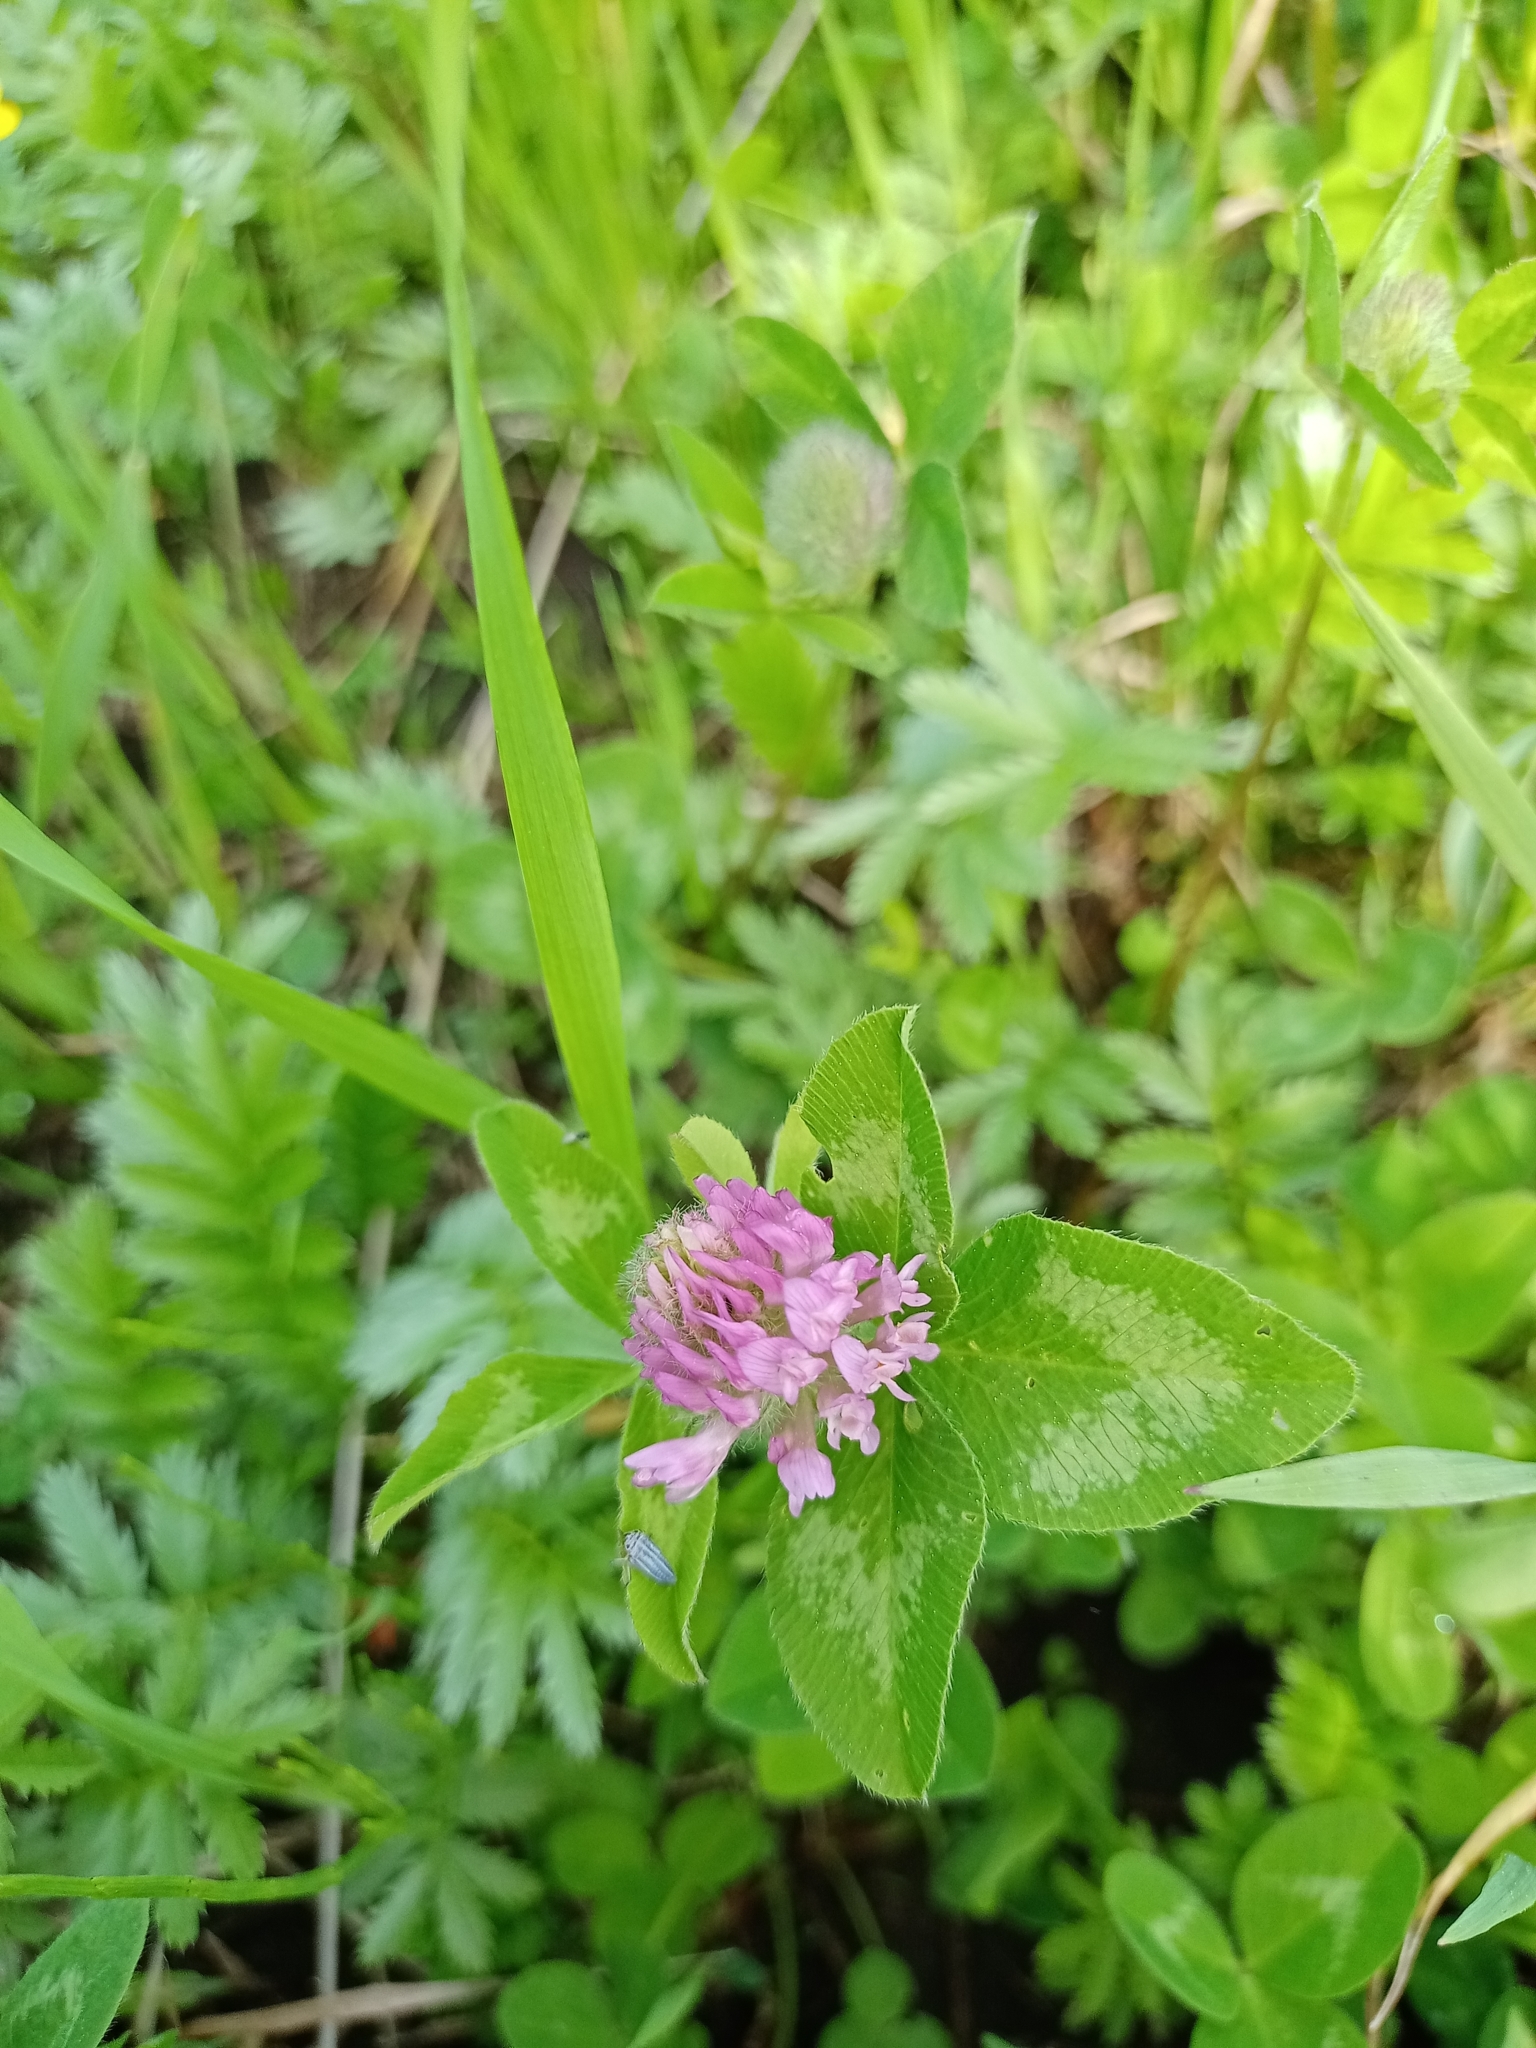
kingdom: Plantae
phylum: Tracheophyta
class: Magnoliopsida
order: Fabales
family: Fabaceae
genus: Trifolium
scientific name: Trifolium pratense
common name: Red clover
